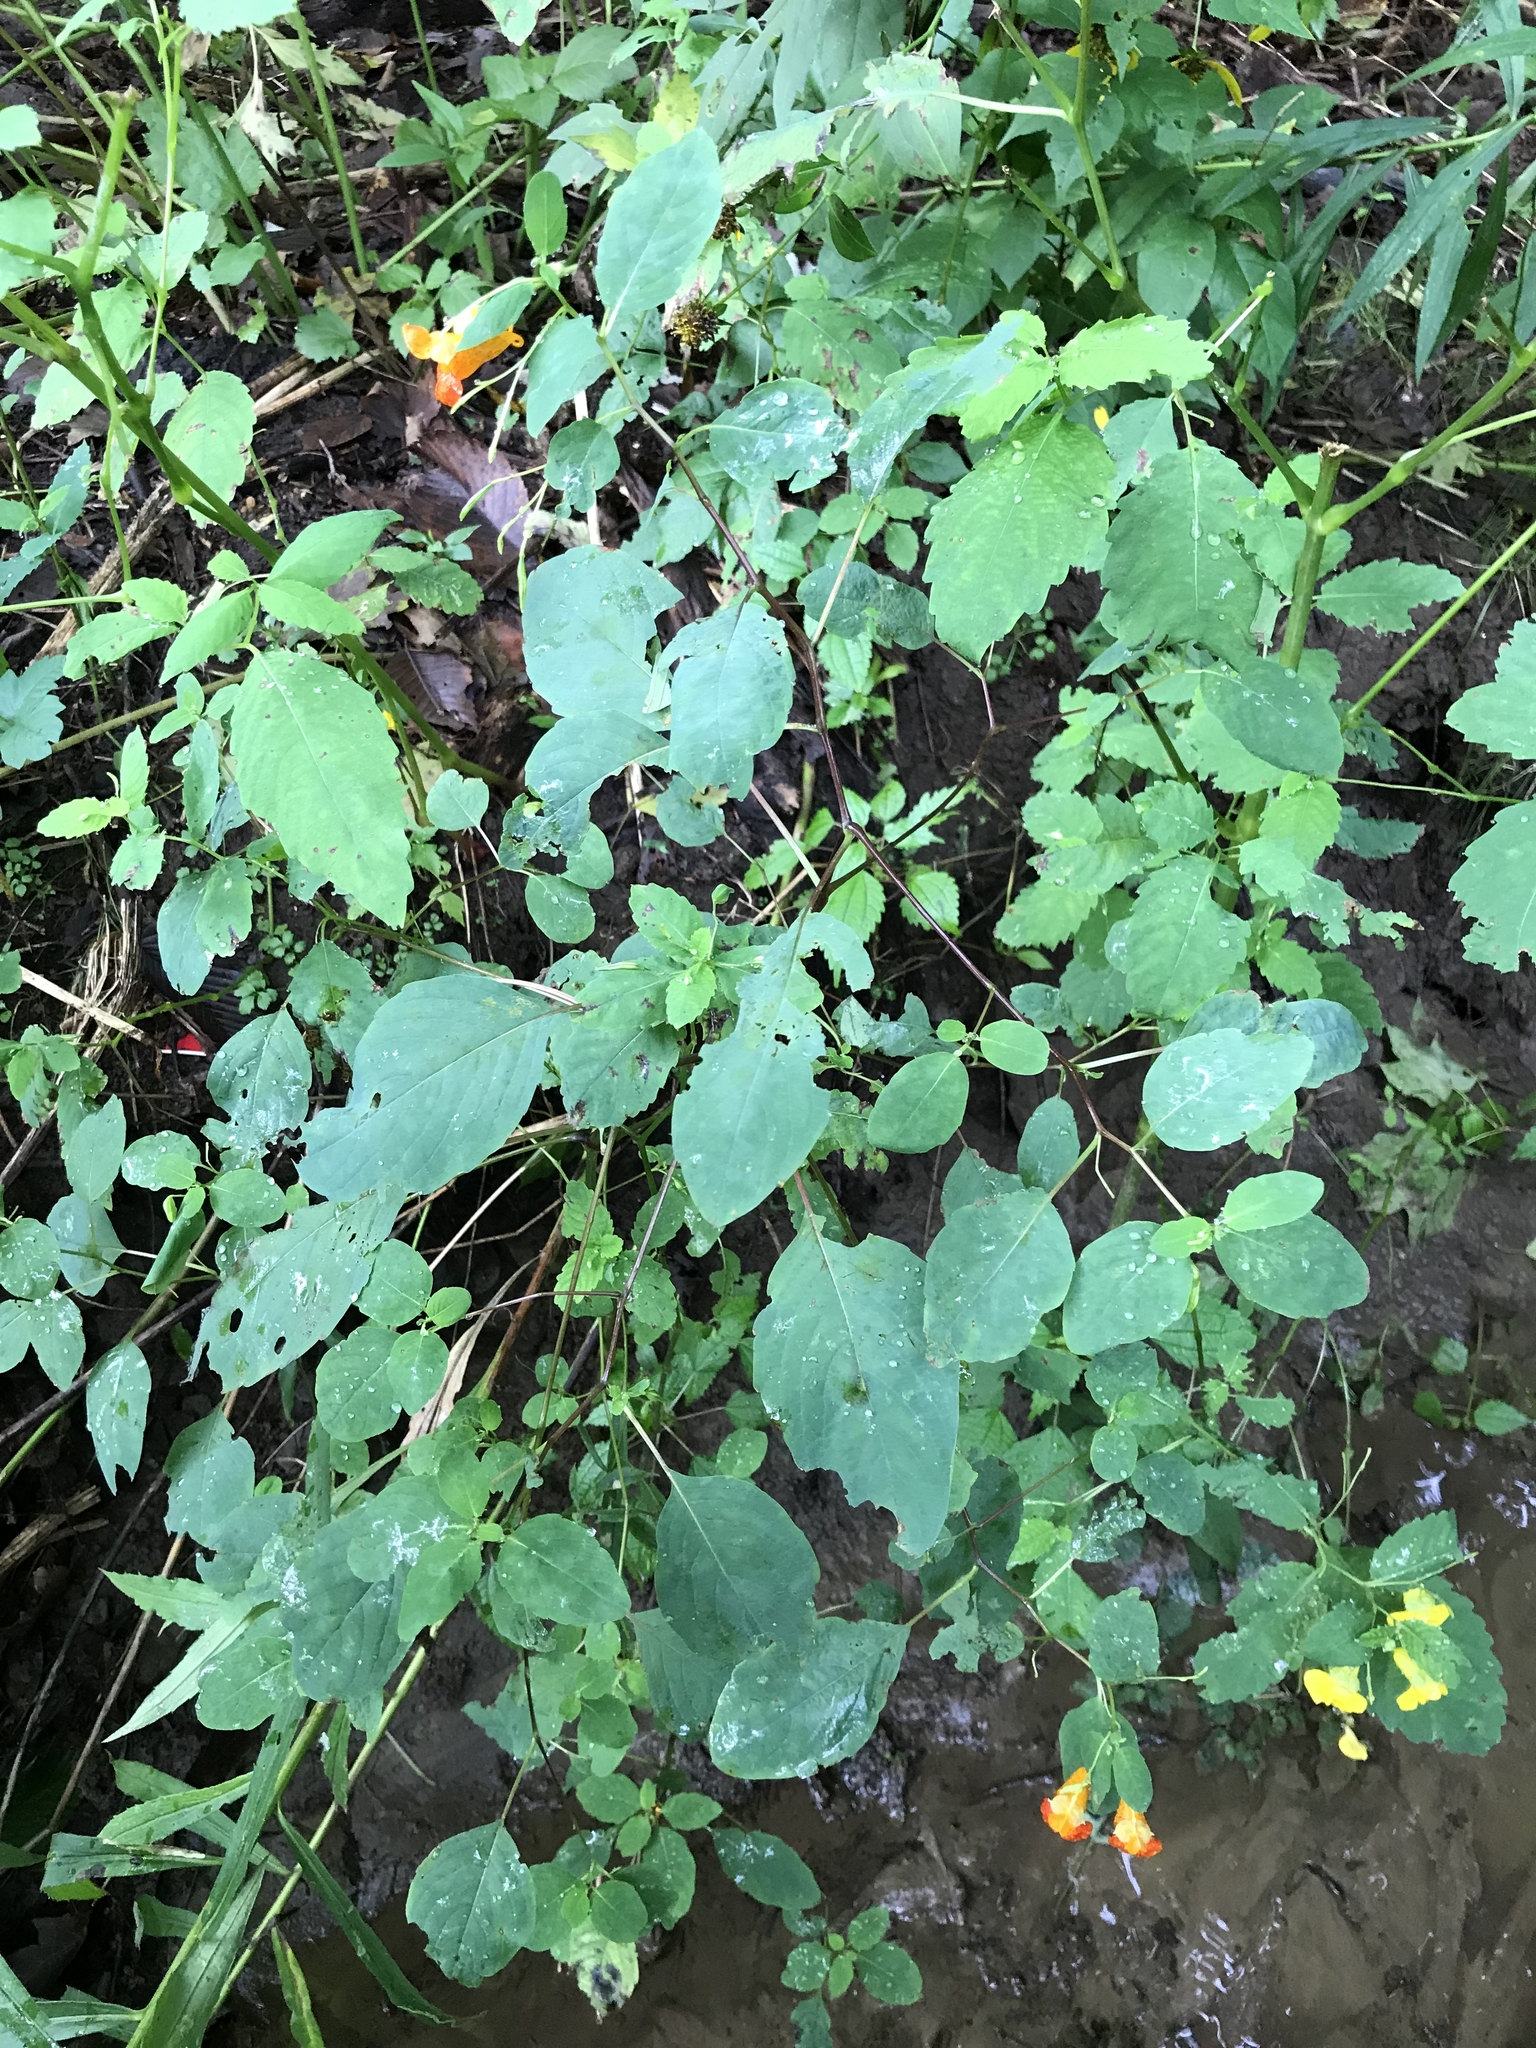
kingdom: Plantae
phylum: Tracheophyta
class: Magnoliopsida
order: Ericales
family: Balsaminaceae
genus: Impatiens
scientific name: Impatiens capensis
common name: Orange balsam
